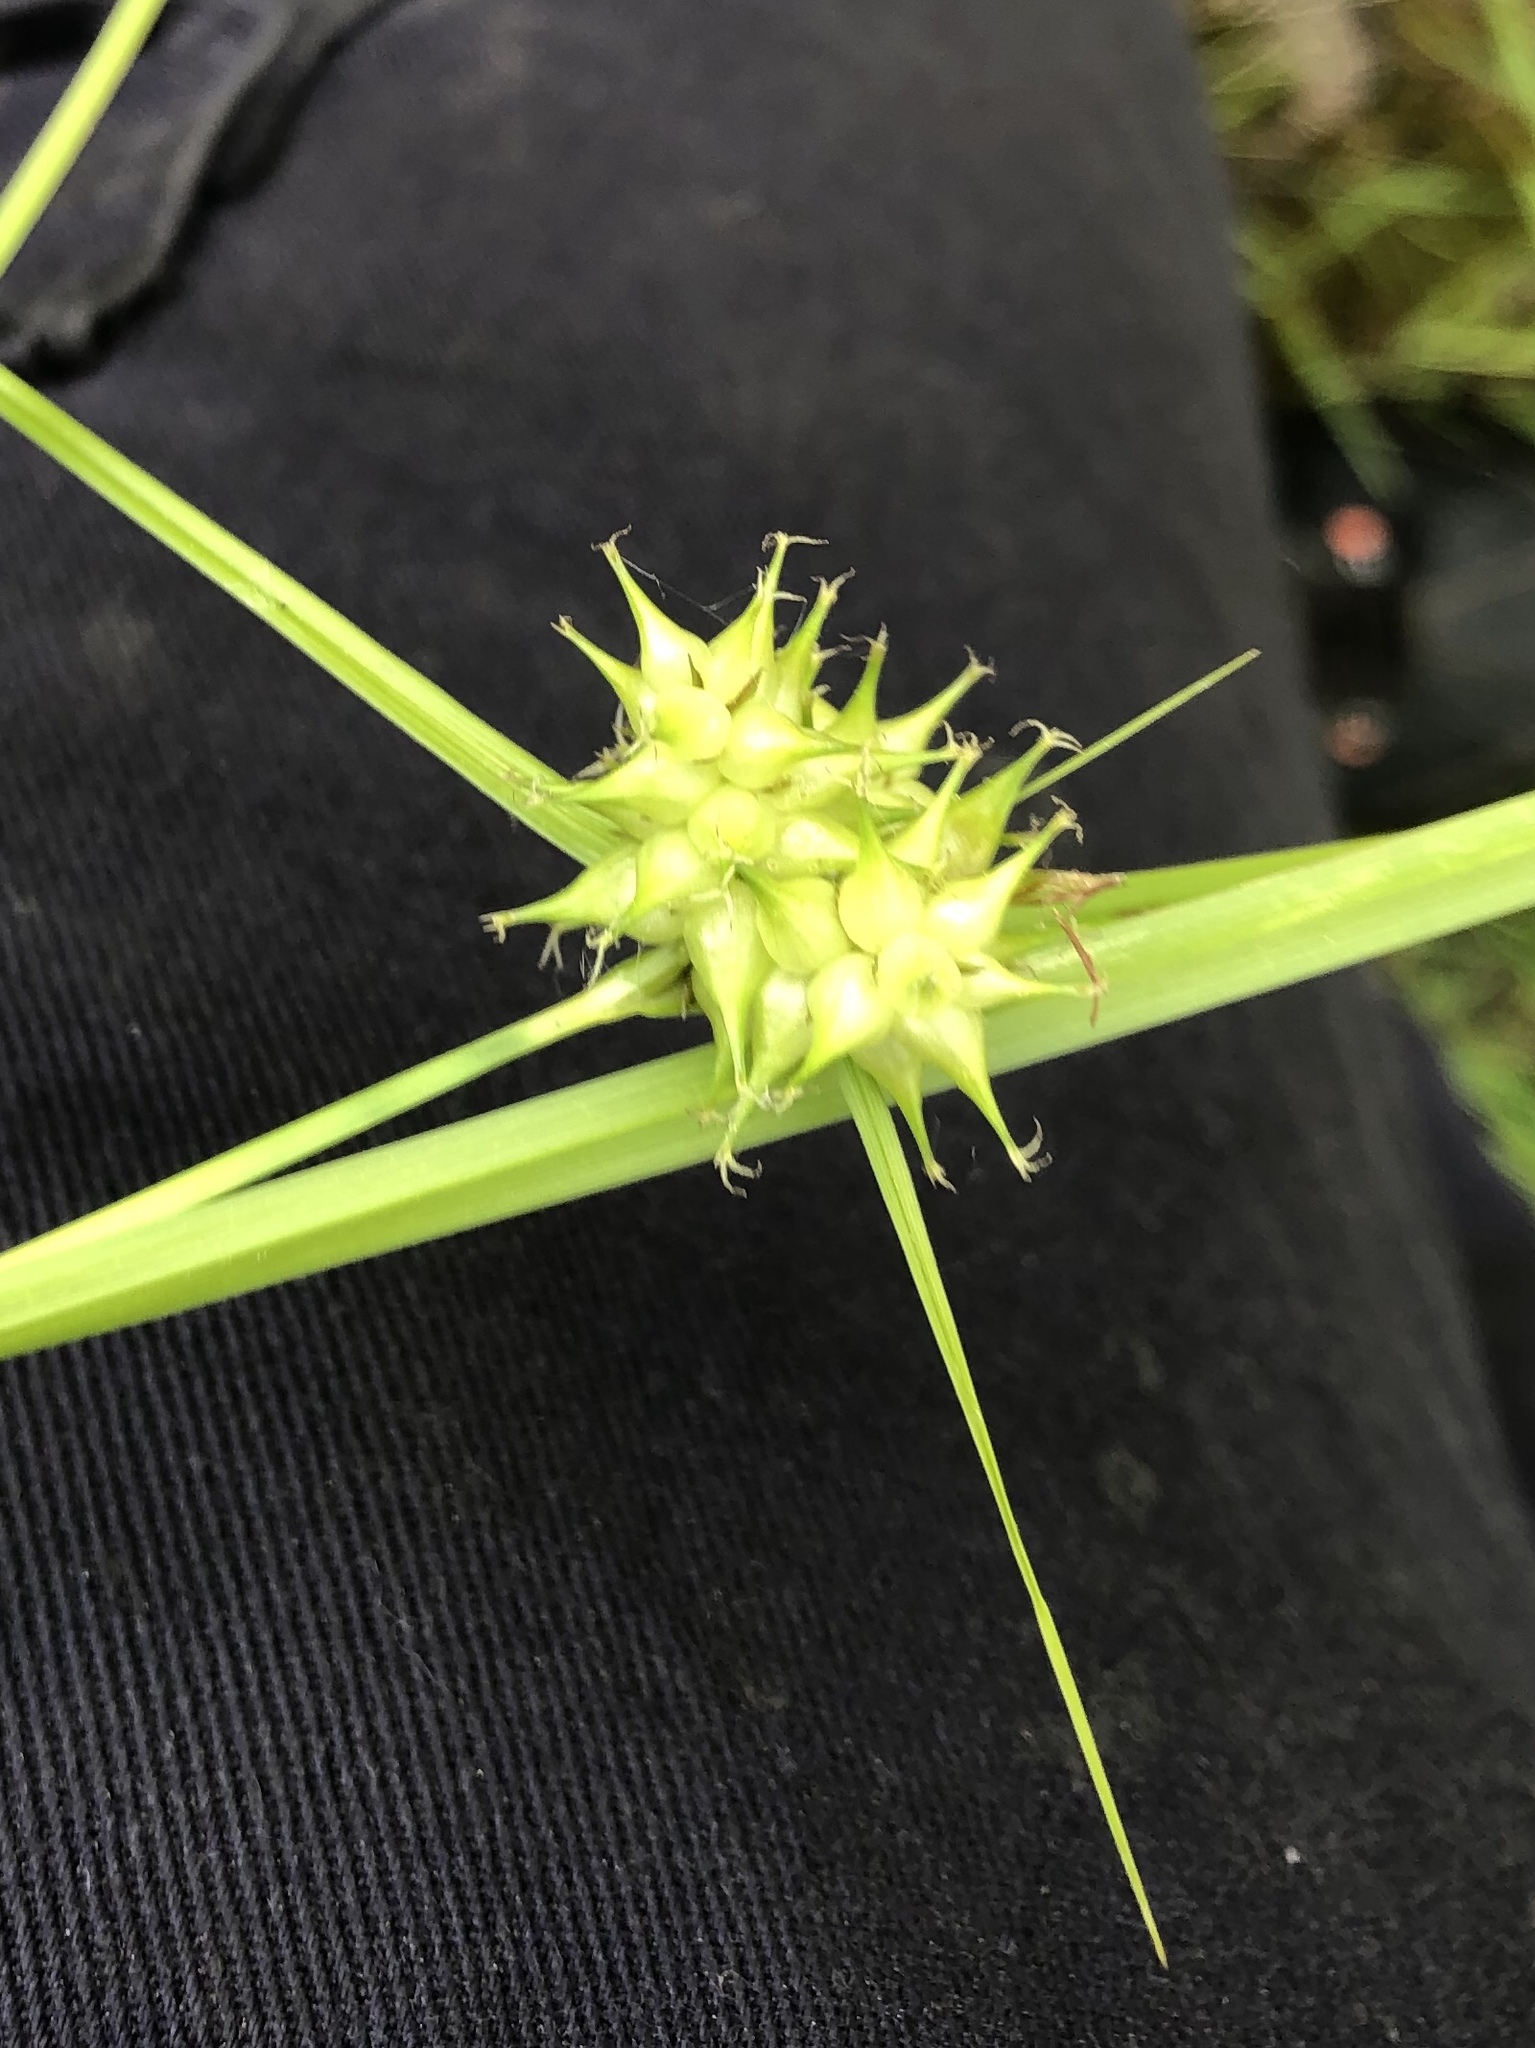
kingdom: Plantae
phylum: Tracheophyta
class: Liliopsida
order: Poales
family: Cyperaceae
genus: Carex
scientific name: Carex flava
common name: Large yellow-sedge
